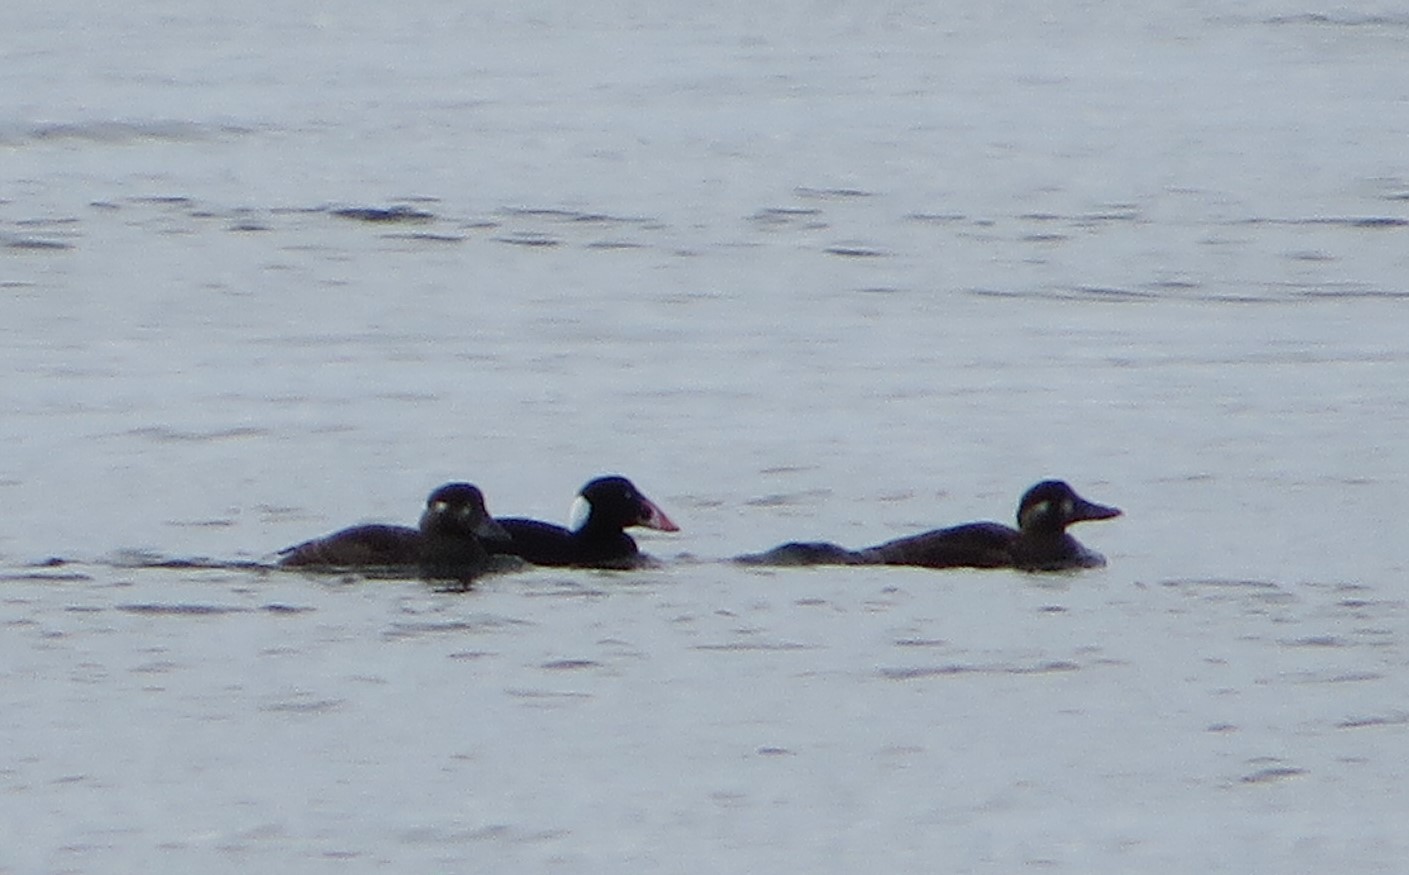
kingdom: Animalia
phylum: Chordata
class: Aves
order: Anseriformes
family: Anatidae
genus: Melanitta
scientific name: Melanitta perspicillata
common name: Surf scoter
